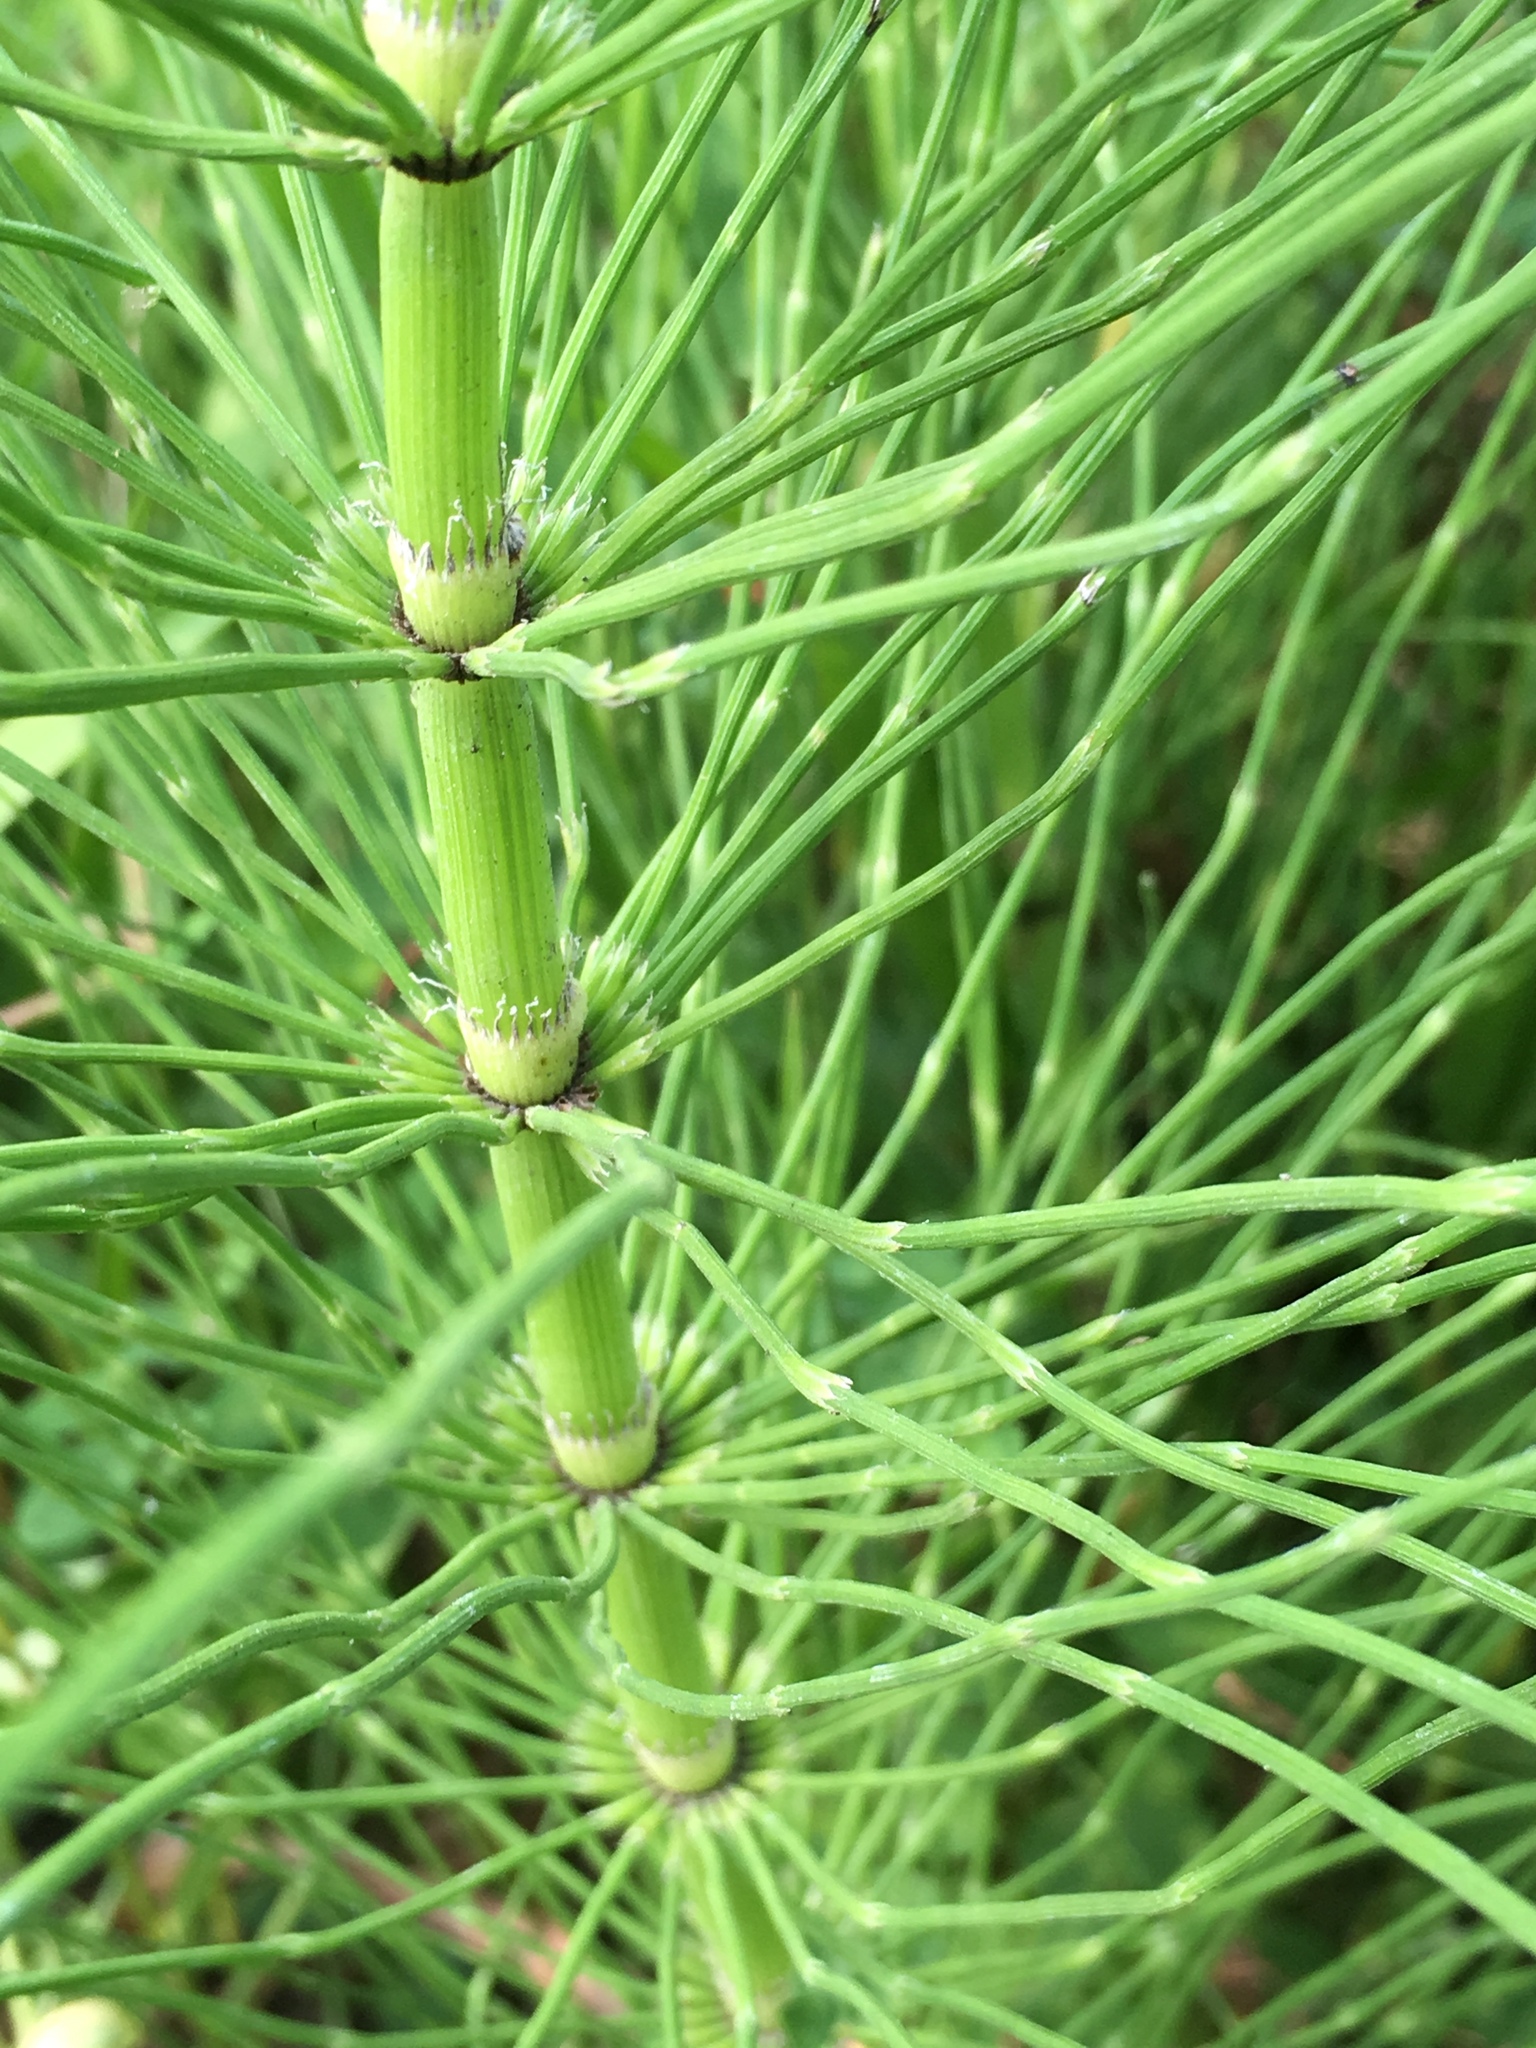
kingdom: Plantae
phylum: Tracheophyta
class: Polypodiopsida
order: Equisetales
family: Equisetaceae
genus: Equisetum
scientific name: Equisetum braunii
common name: Braun's horsetail
